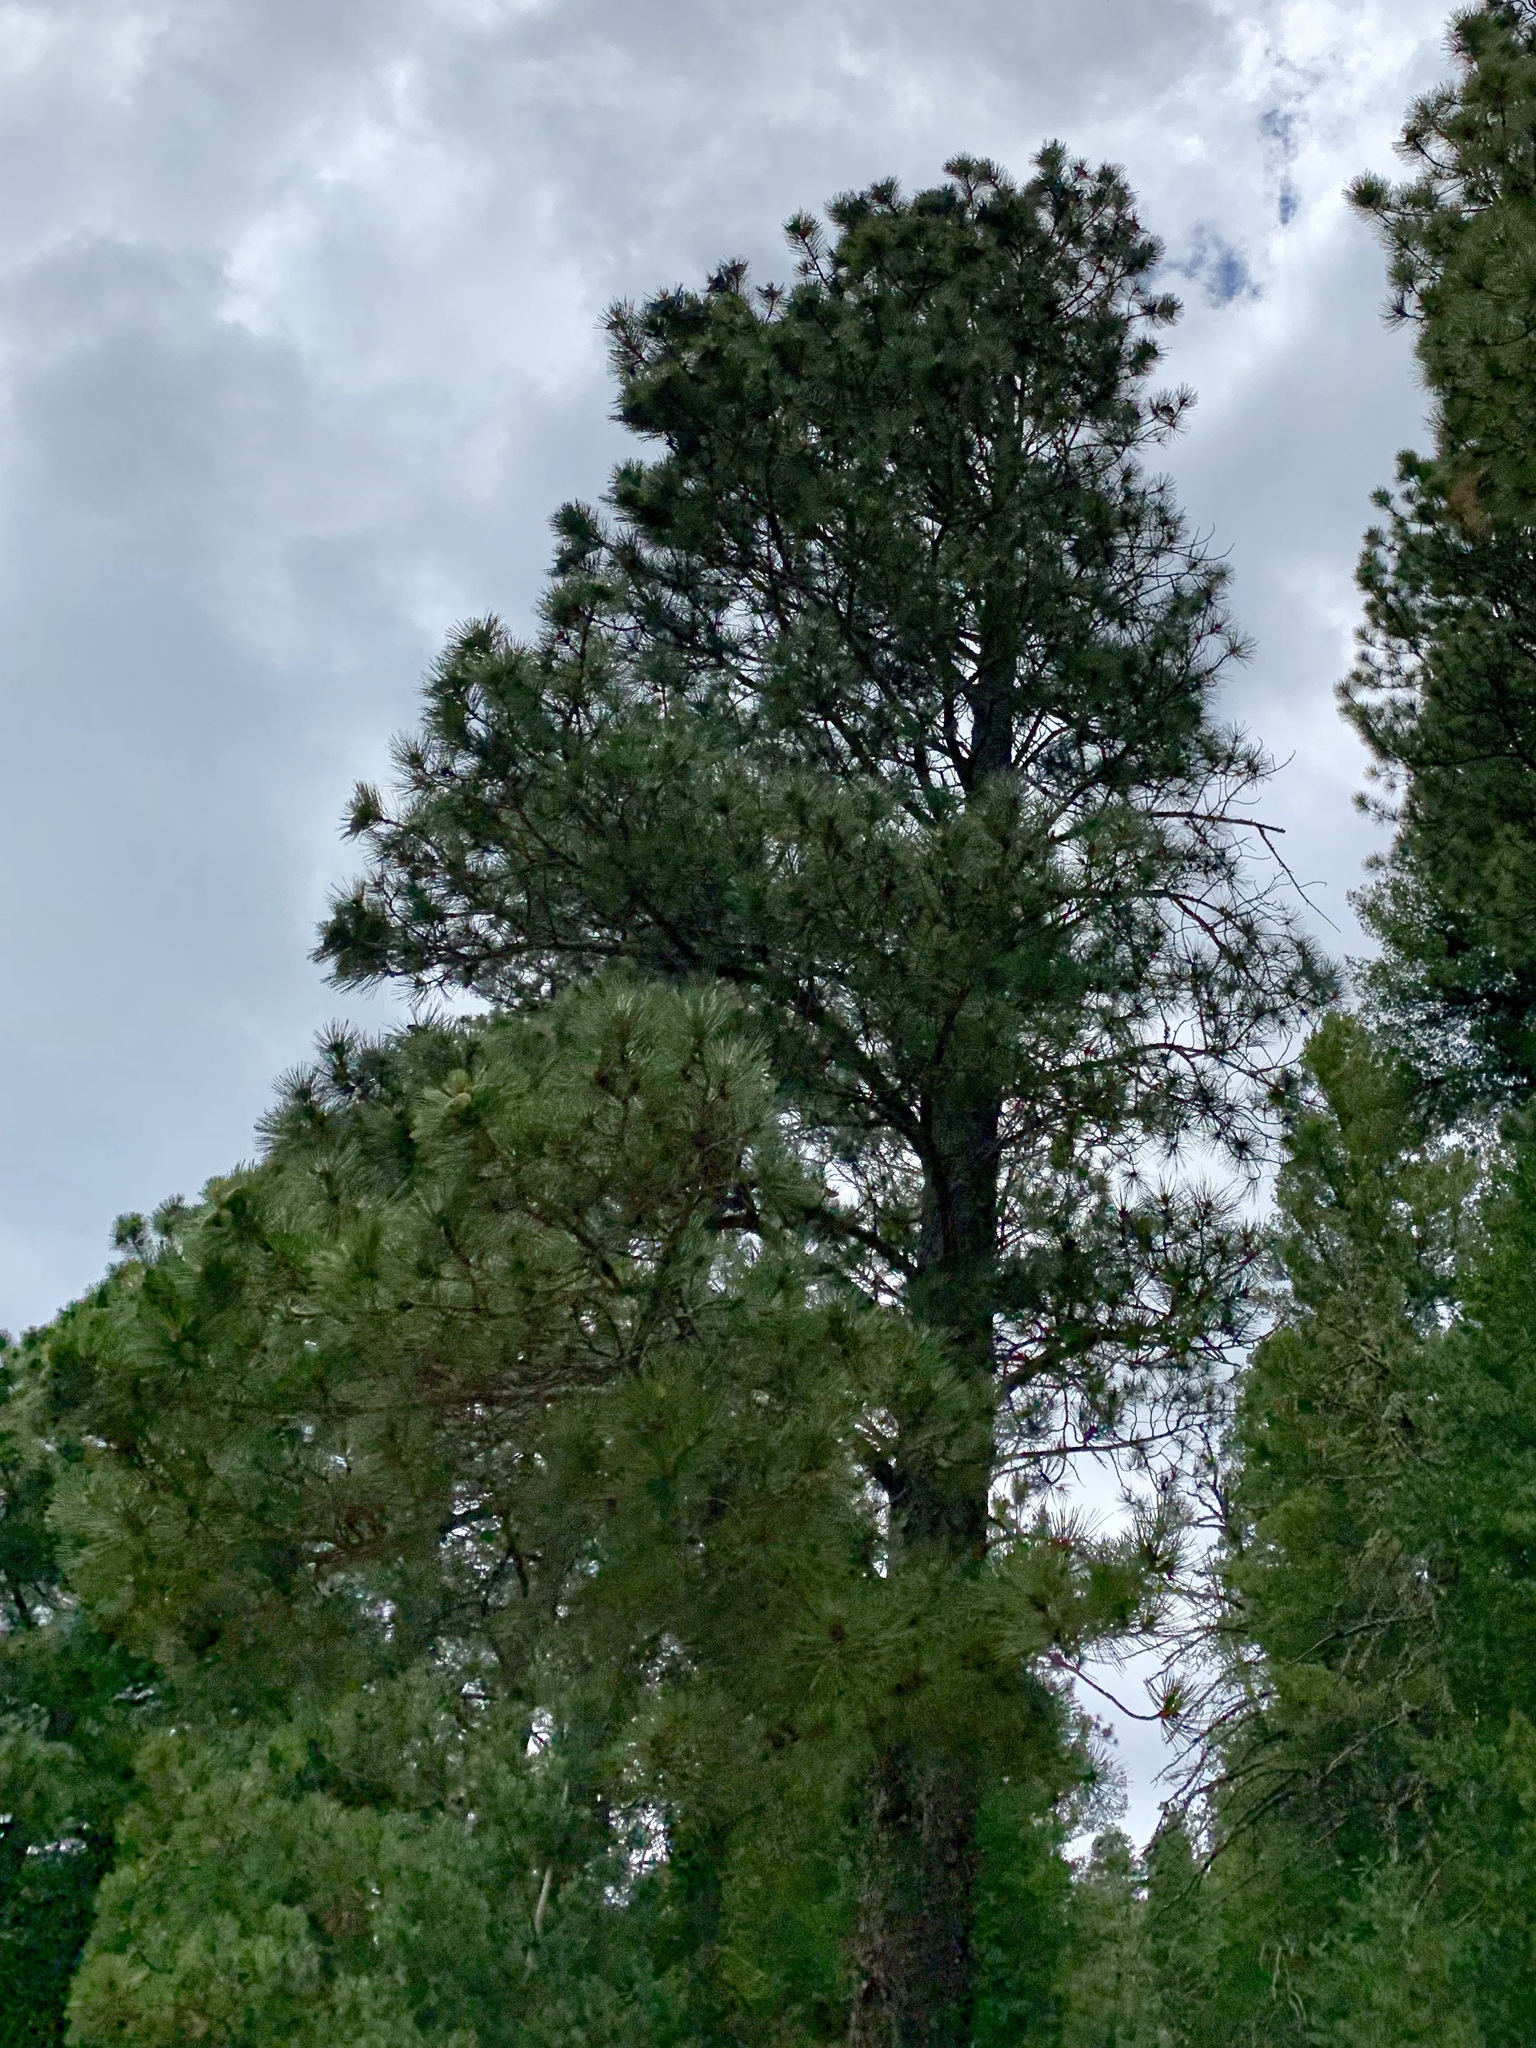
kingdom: Plantae
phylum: Tracheophyta
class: Pinopsida
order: Pinales
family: Pinaceae
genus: Pinus
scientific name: Pinus ponderosa
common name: Western yellow-pine
